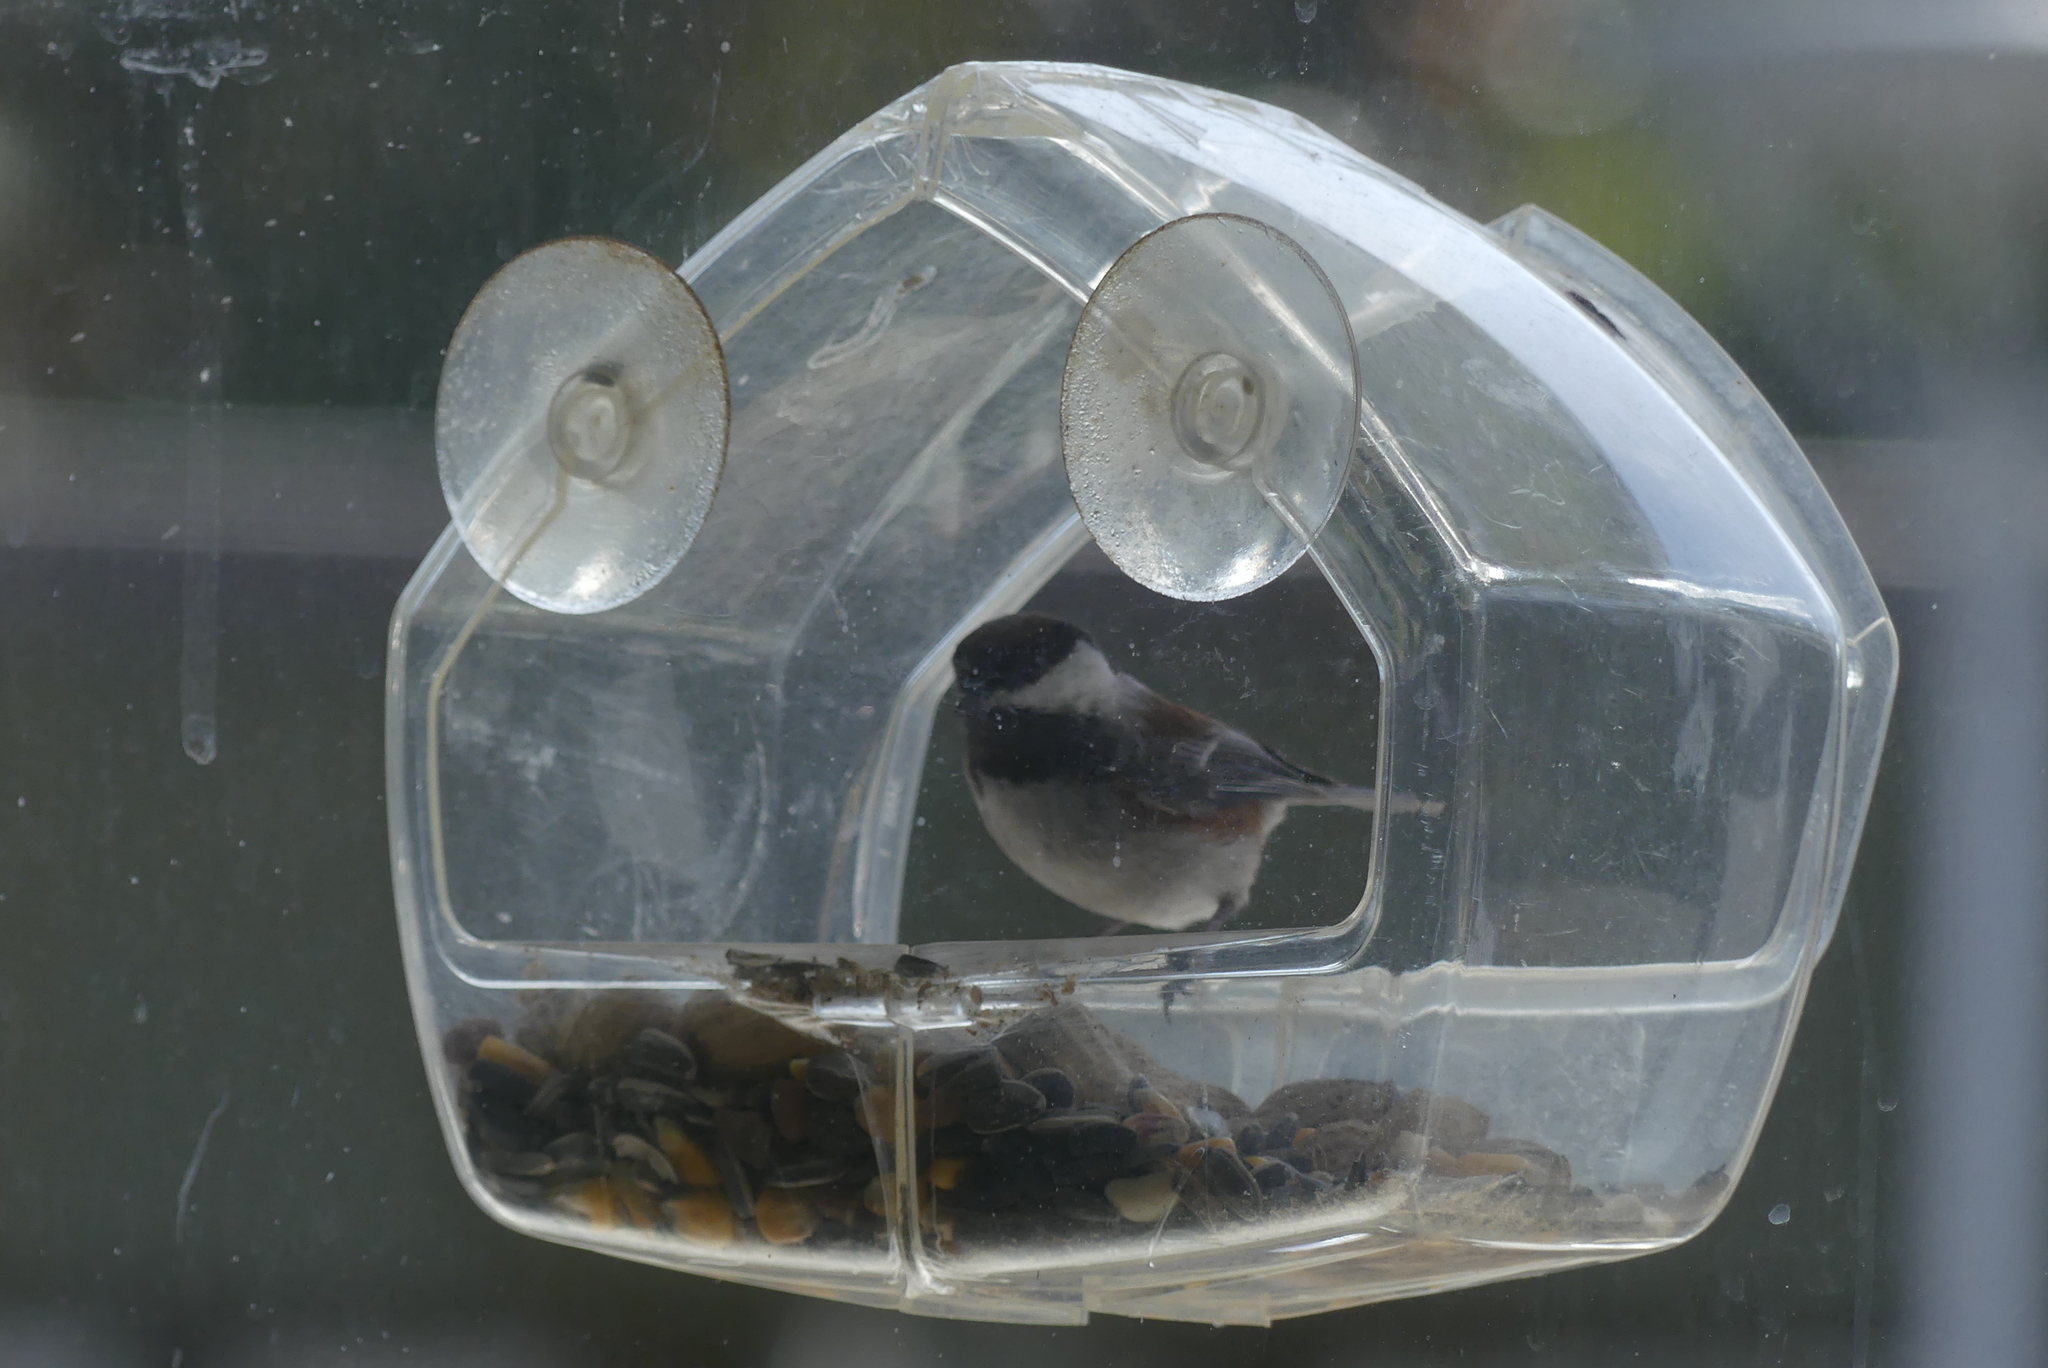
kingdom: Animalia
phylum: Chordata
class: Aves
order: Passeriformes
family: Paridae
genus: Poecile
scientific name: Poecile rufescens
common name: Chestnut-backed chickadee
